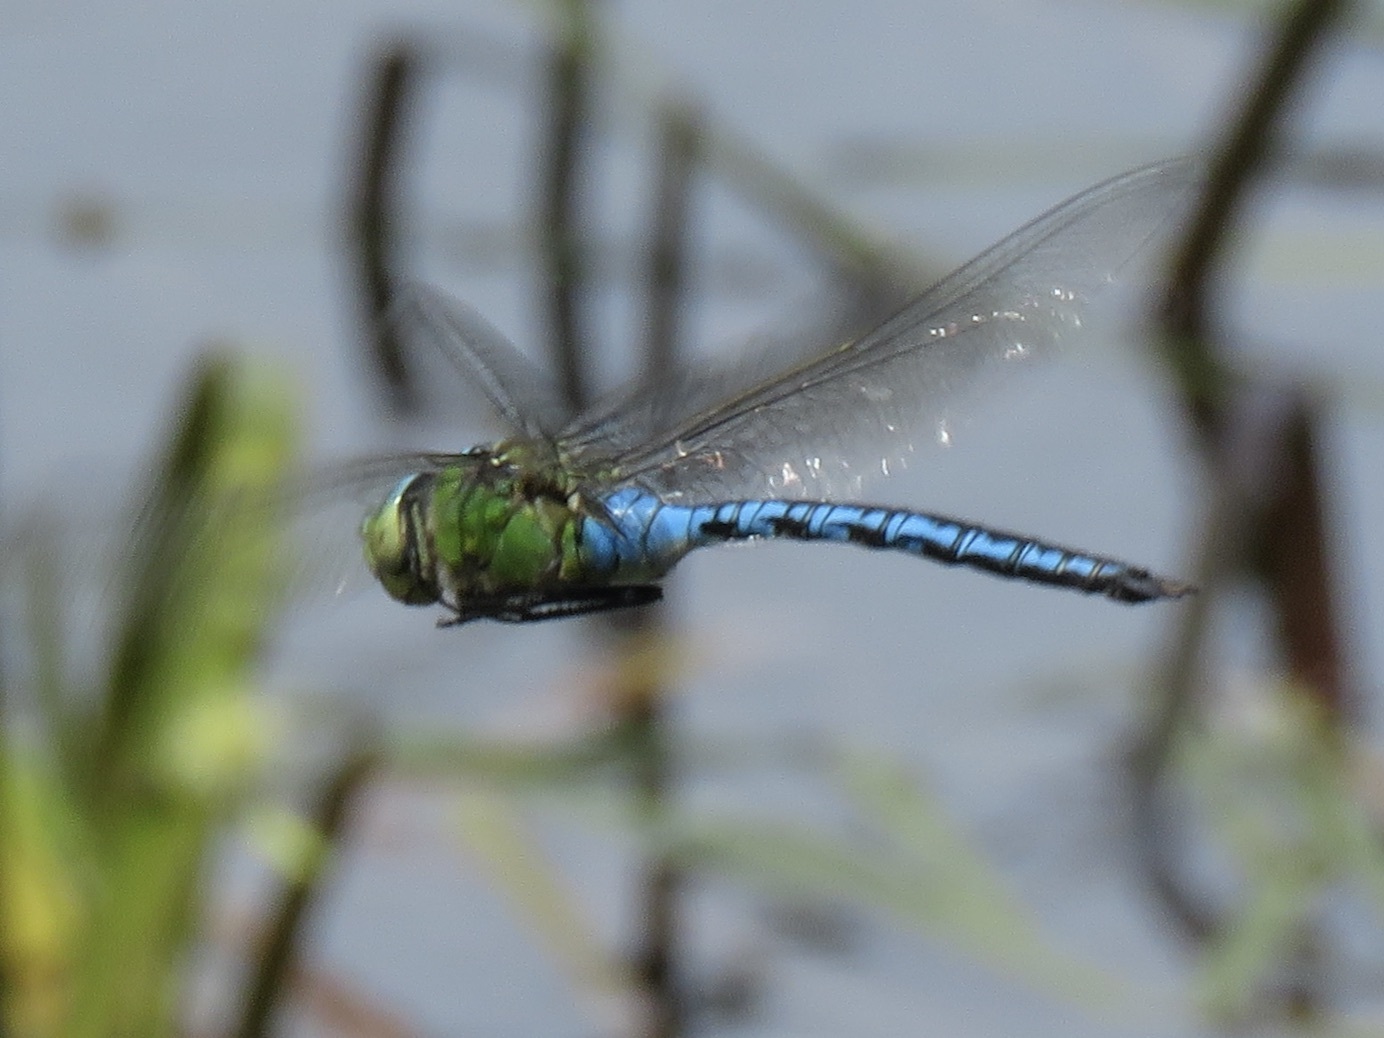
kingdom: Animalia
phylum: Arthropoda
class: Insecta
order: Odonata
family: Aeshnidae
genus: Anax
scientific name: Anax imperator
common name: Emperor dragonfly
